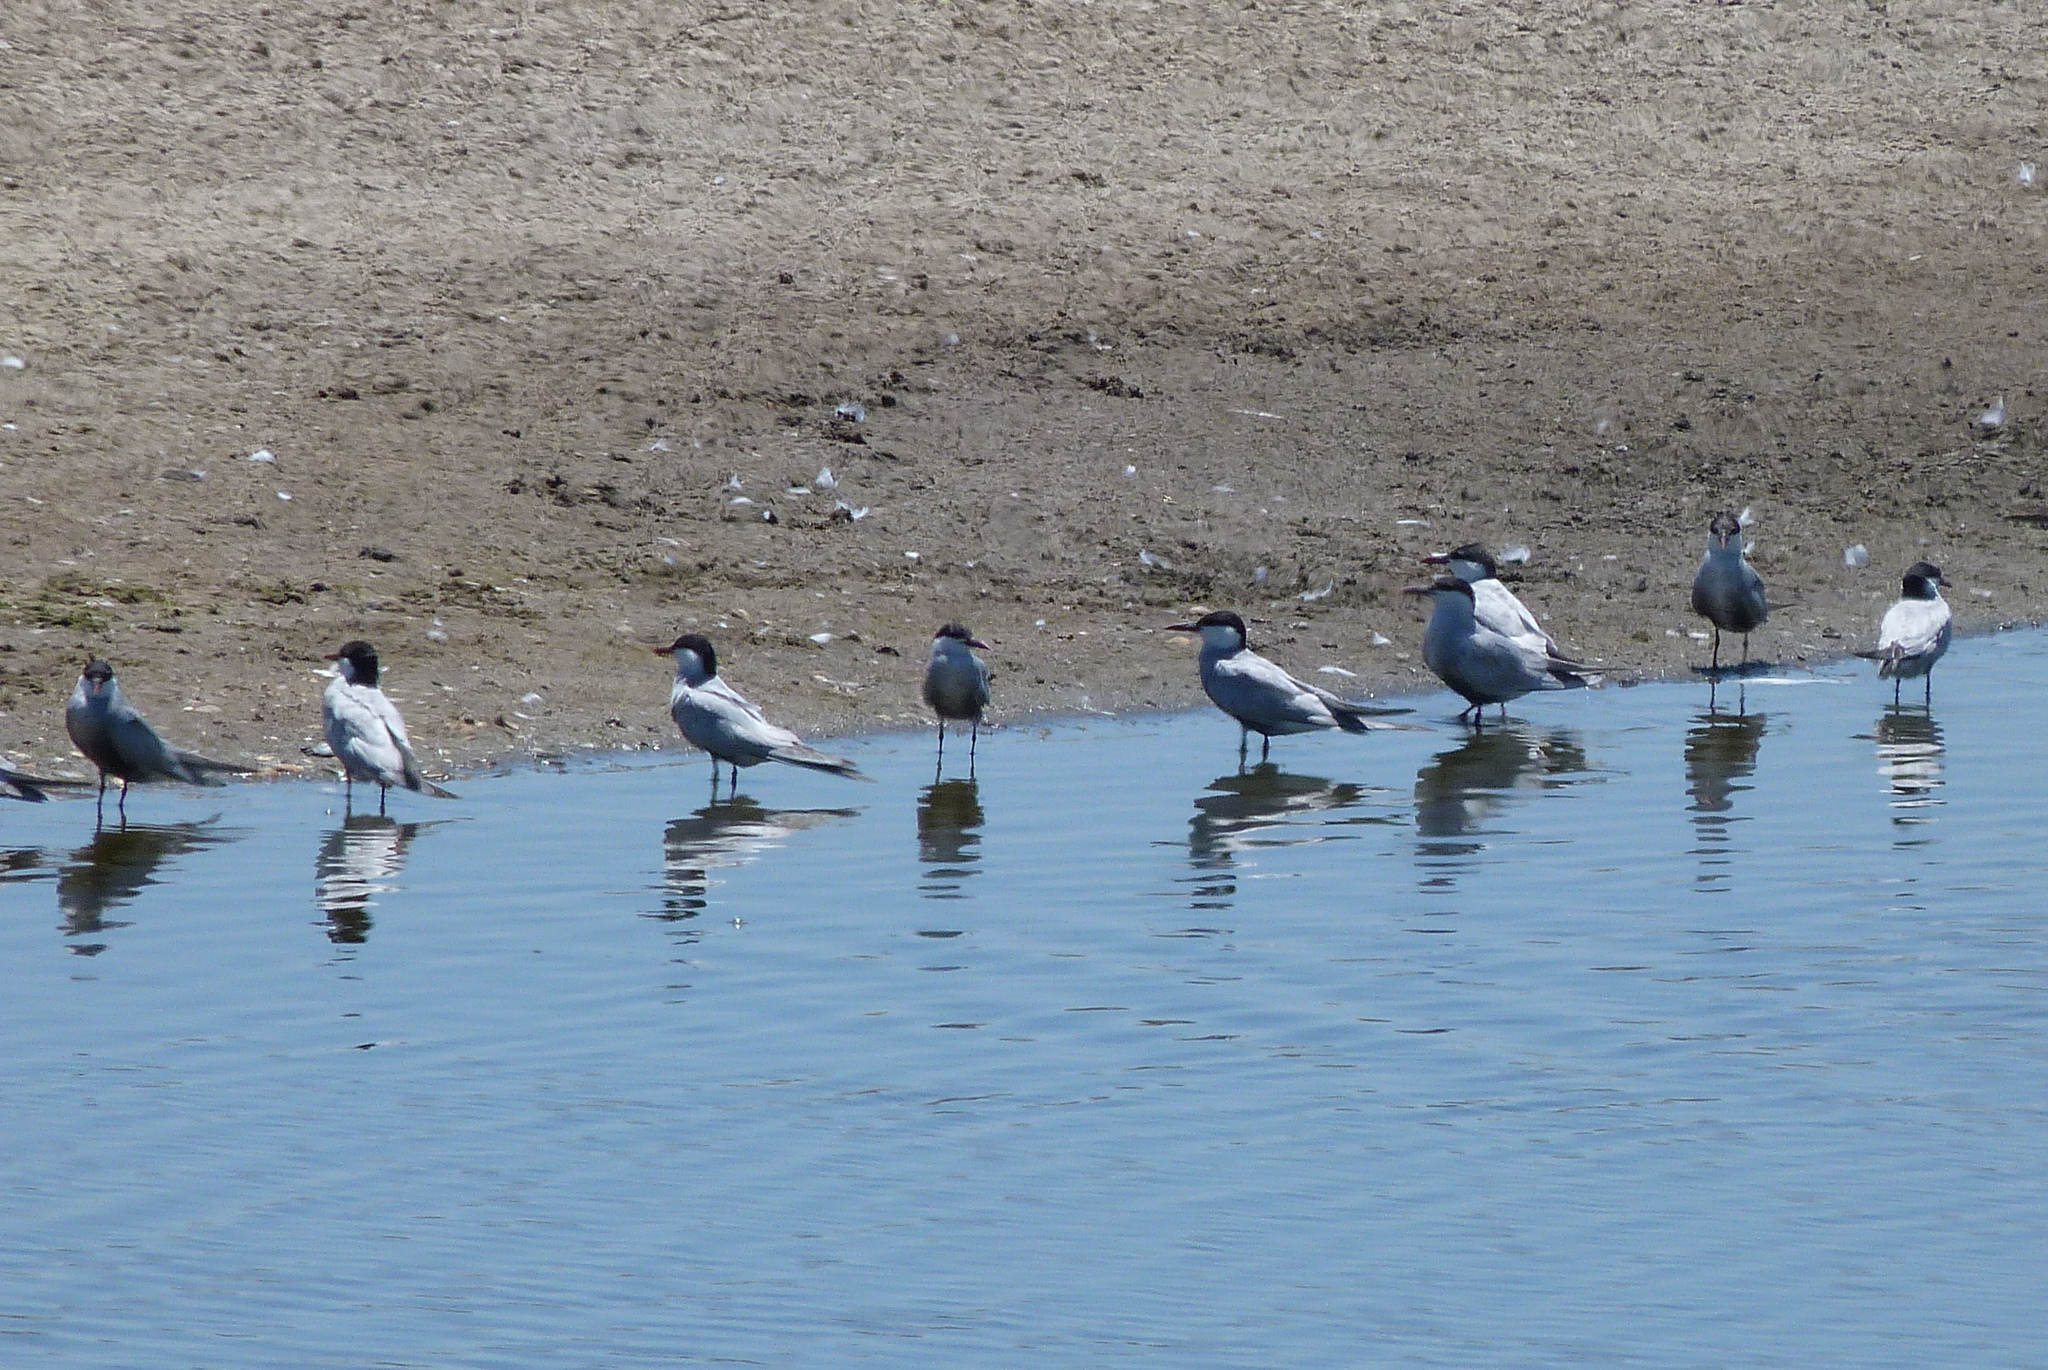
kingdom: Animalia
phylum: Chordata
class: Aves
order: Charadriiformes
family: Laridae
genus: Chlidonias
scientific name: Chlidonias hybrida
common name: Whiskered tern
